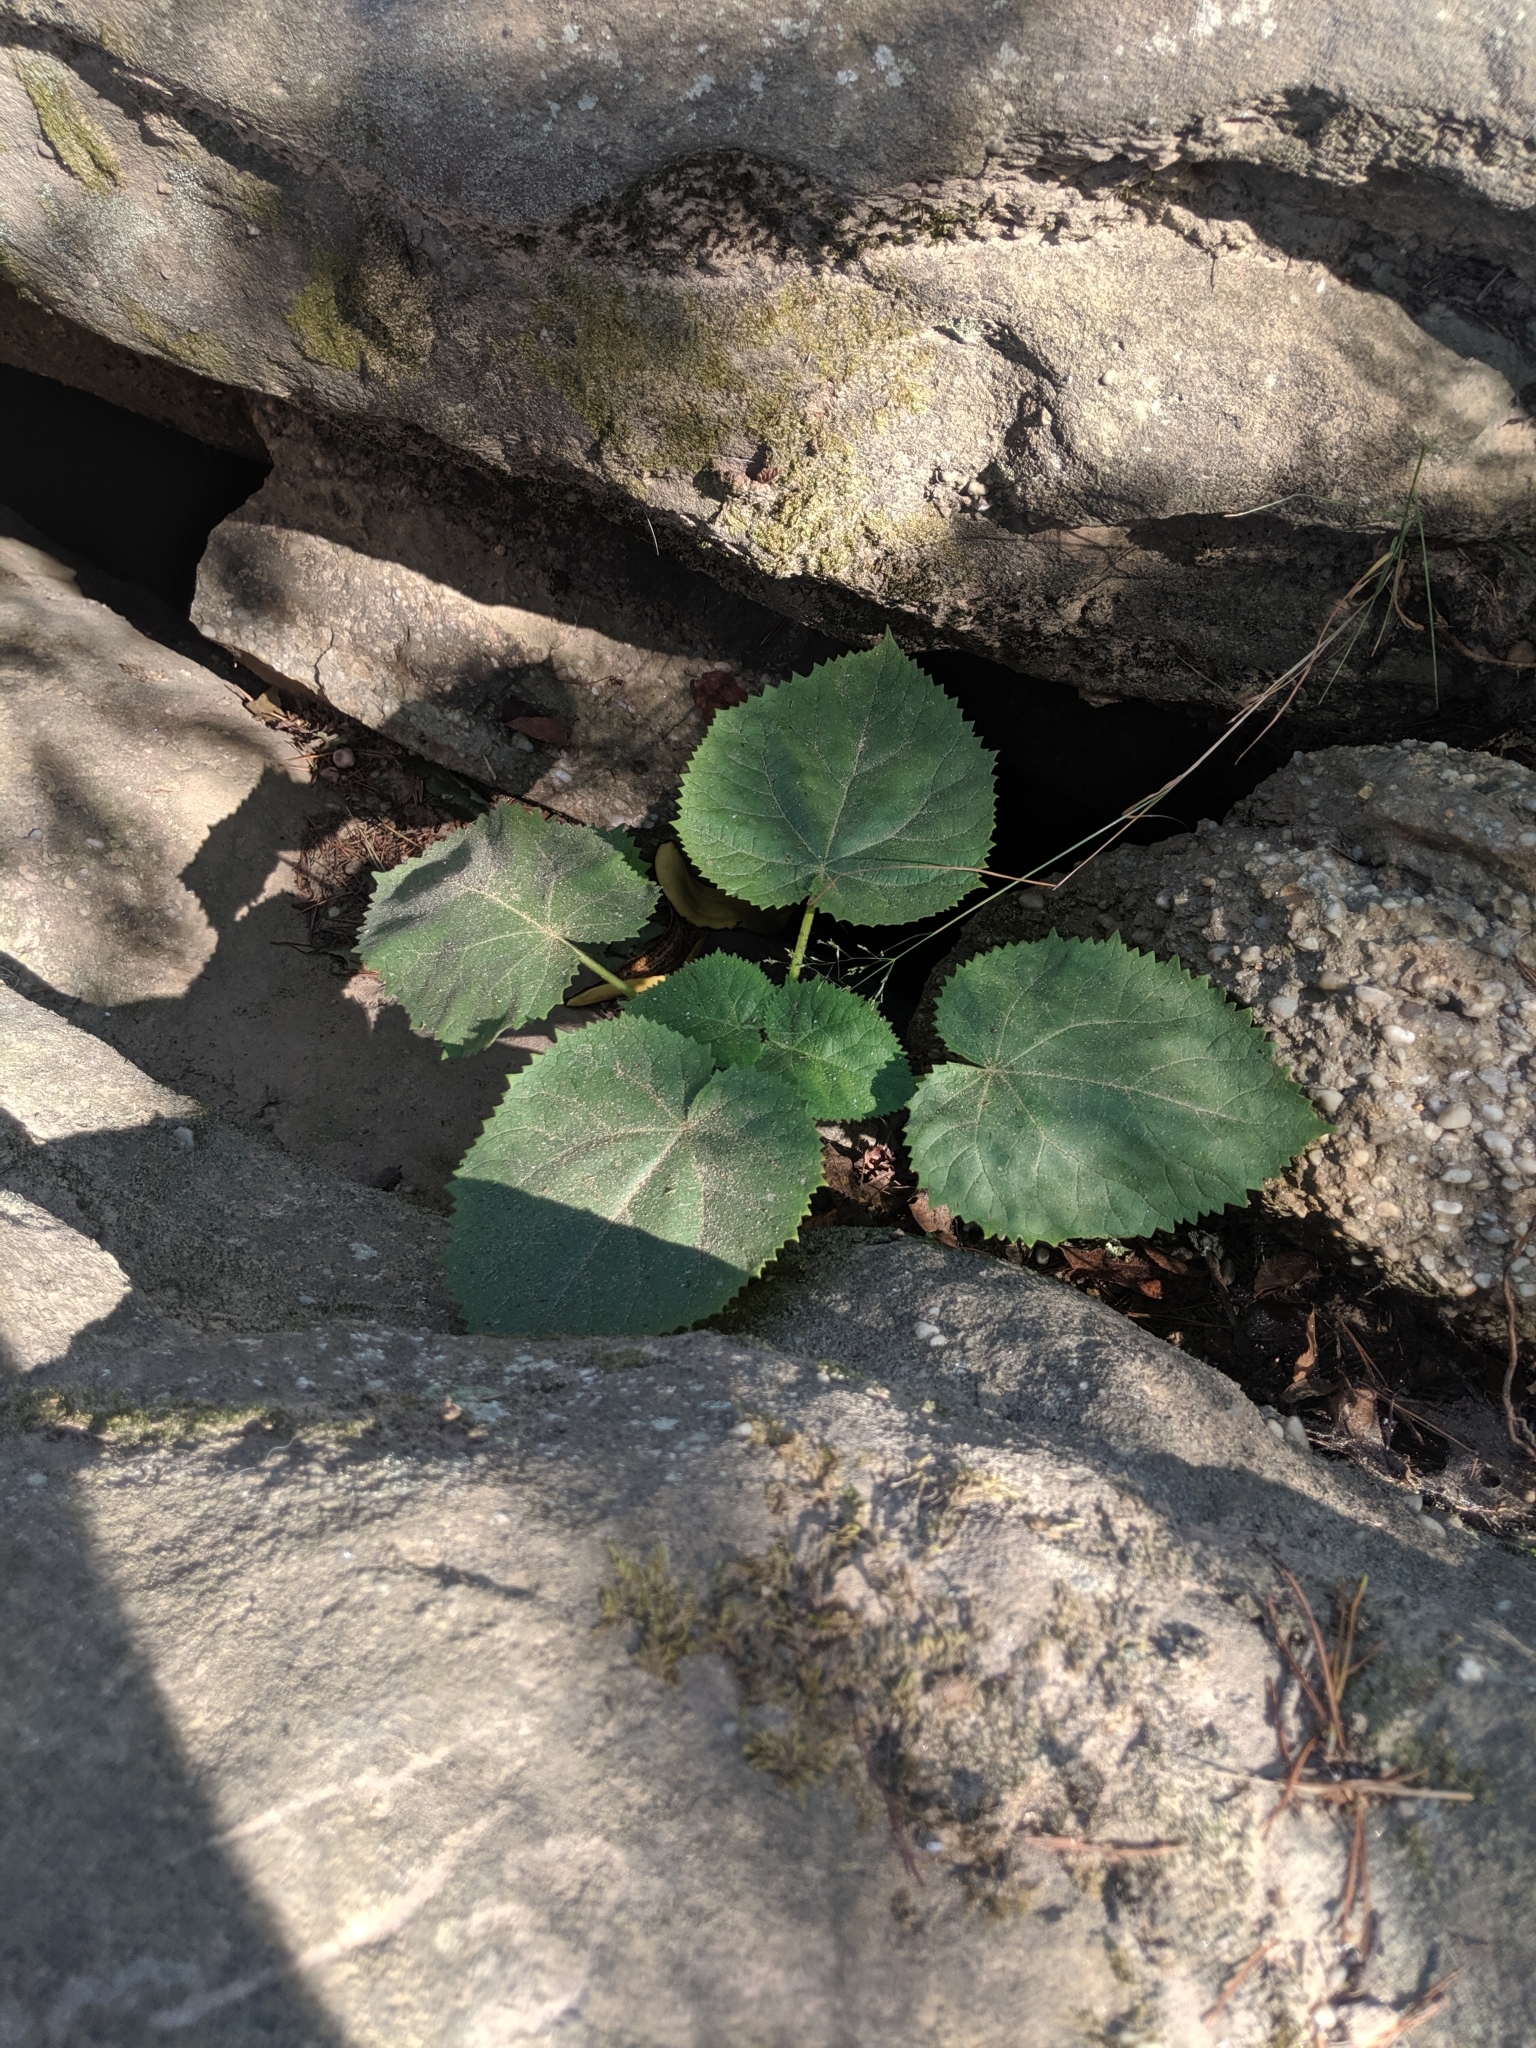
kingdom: Plantae
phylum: Tracheophyta
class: Magnoliopsida
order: Lamiales
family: Paulowniaceae
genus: Paulownia
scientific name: Paulownia tomentosa
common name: Foxglove-tree
